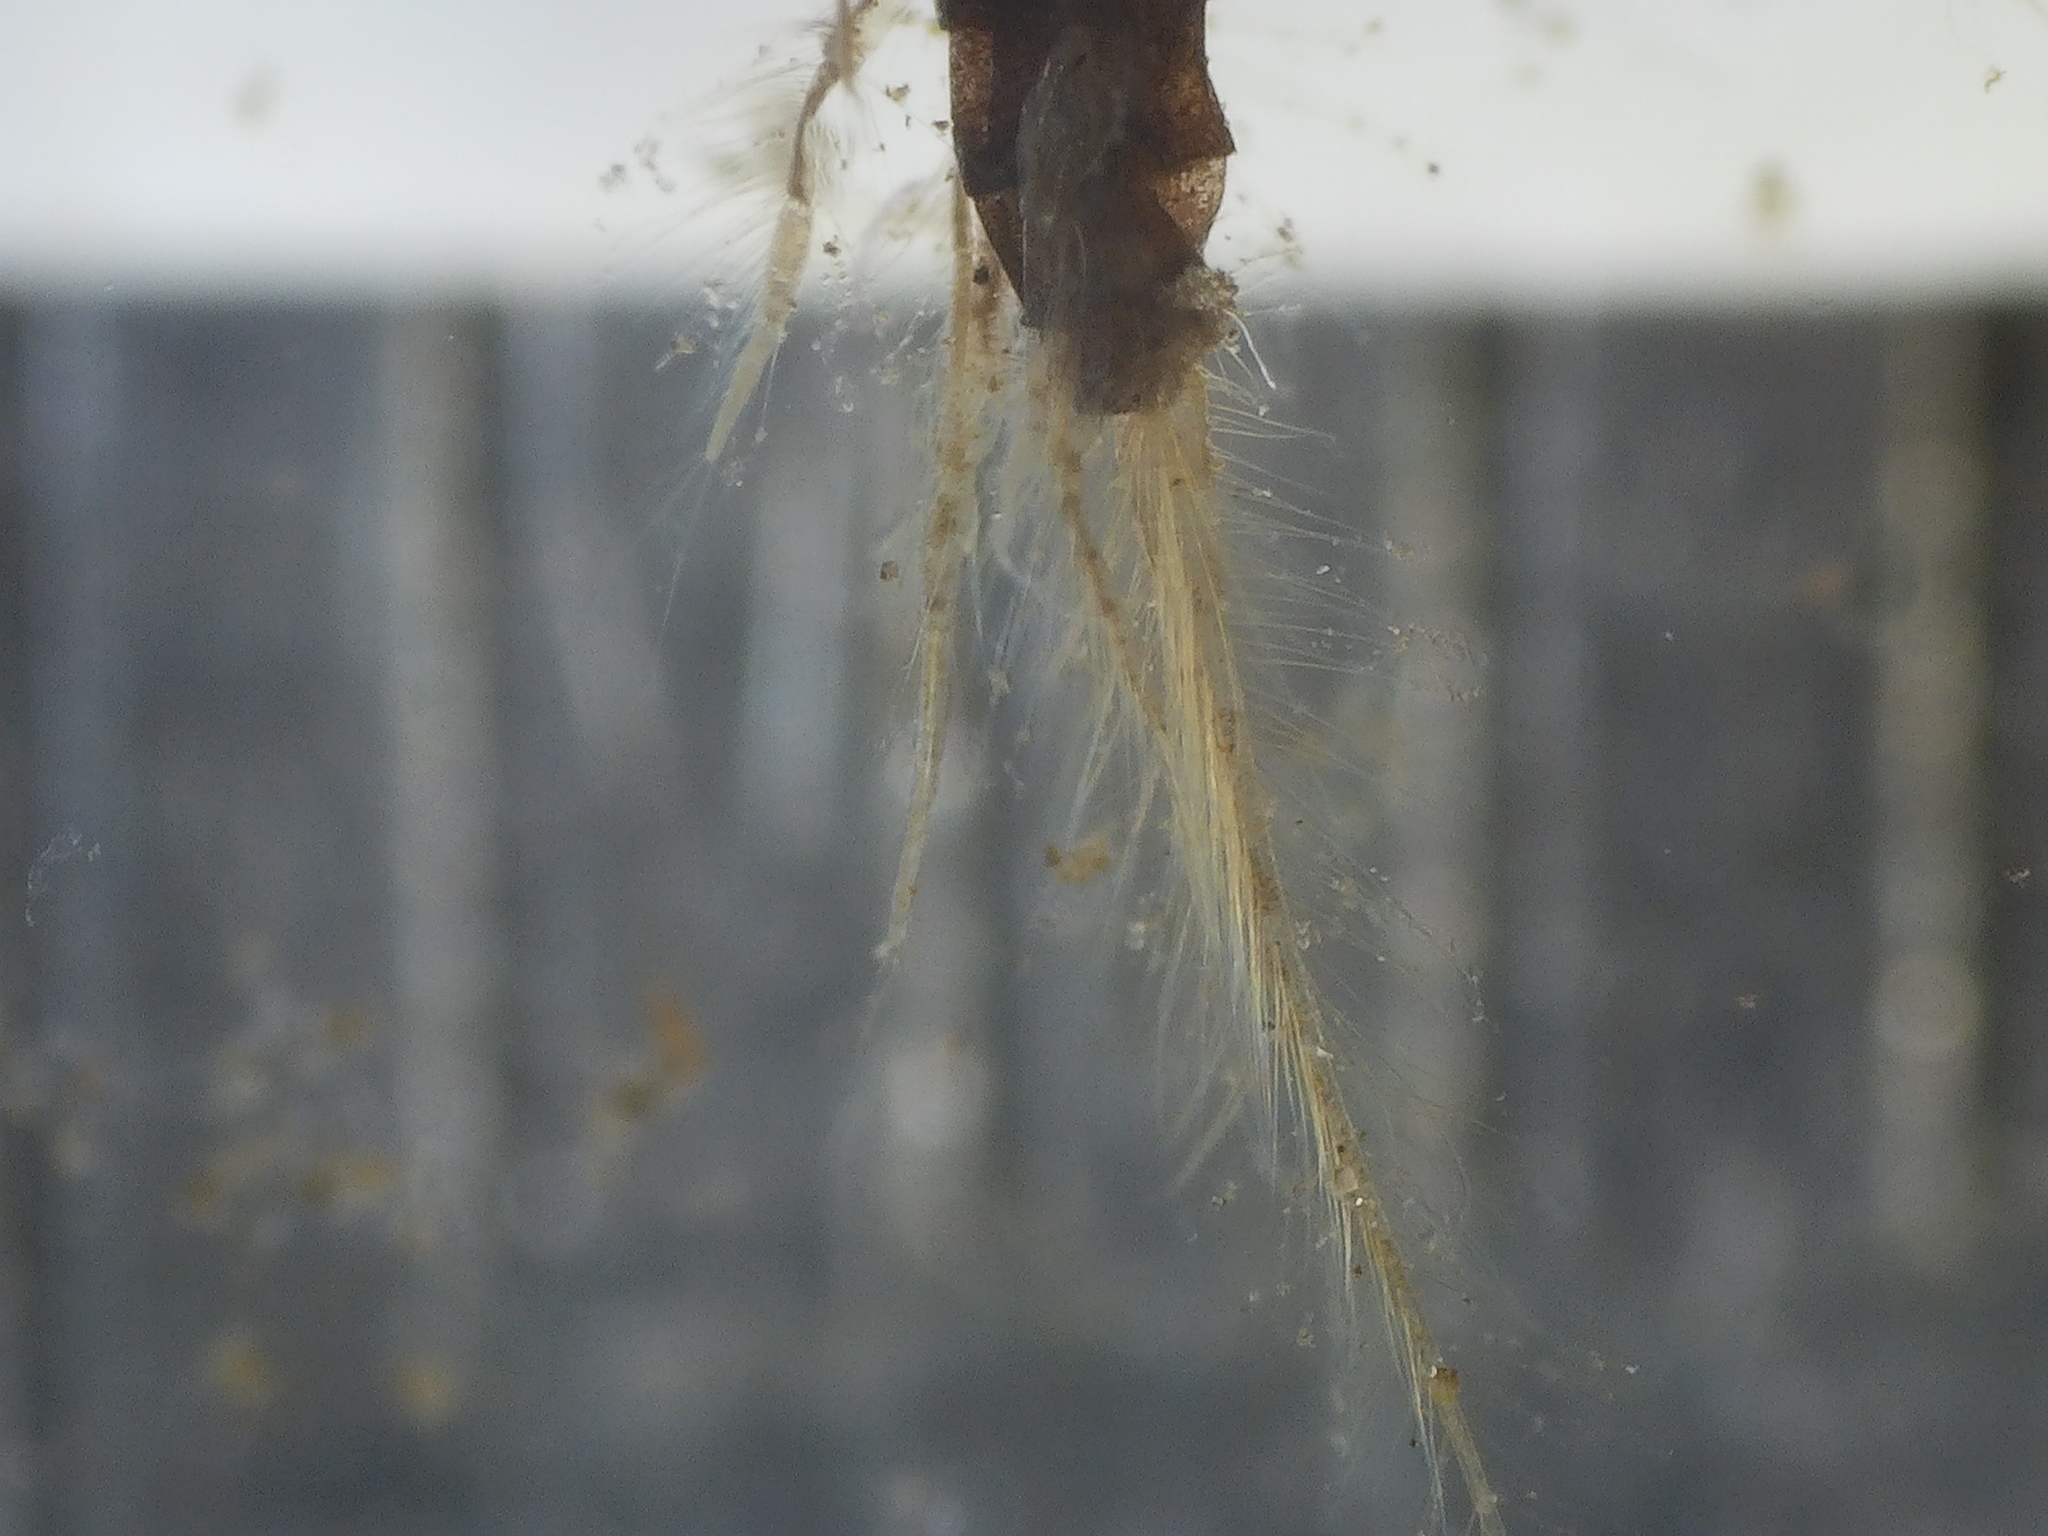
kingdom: Animalia
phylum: Arthropoda
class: Insecta
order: Megaloptera
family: Sialidae
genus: Sialis
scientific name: Sialis
